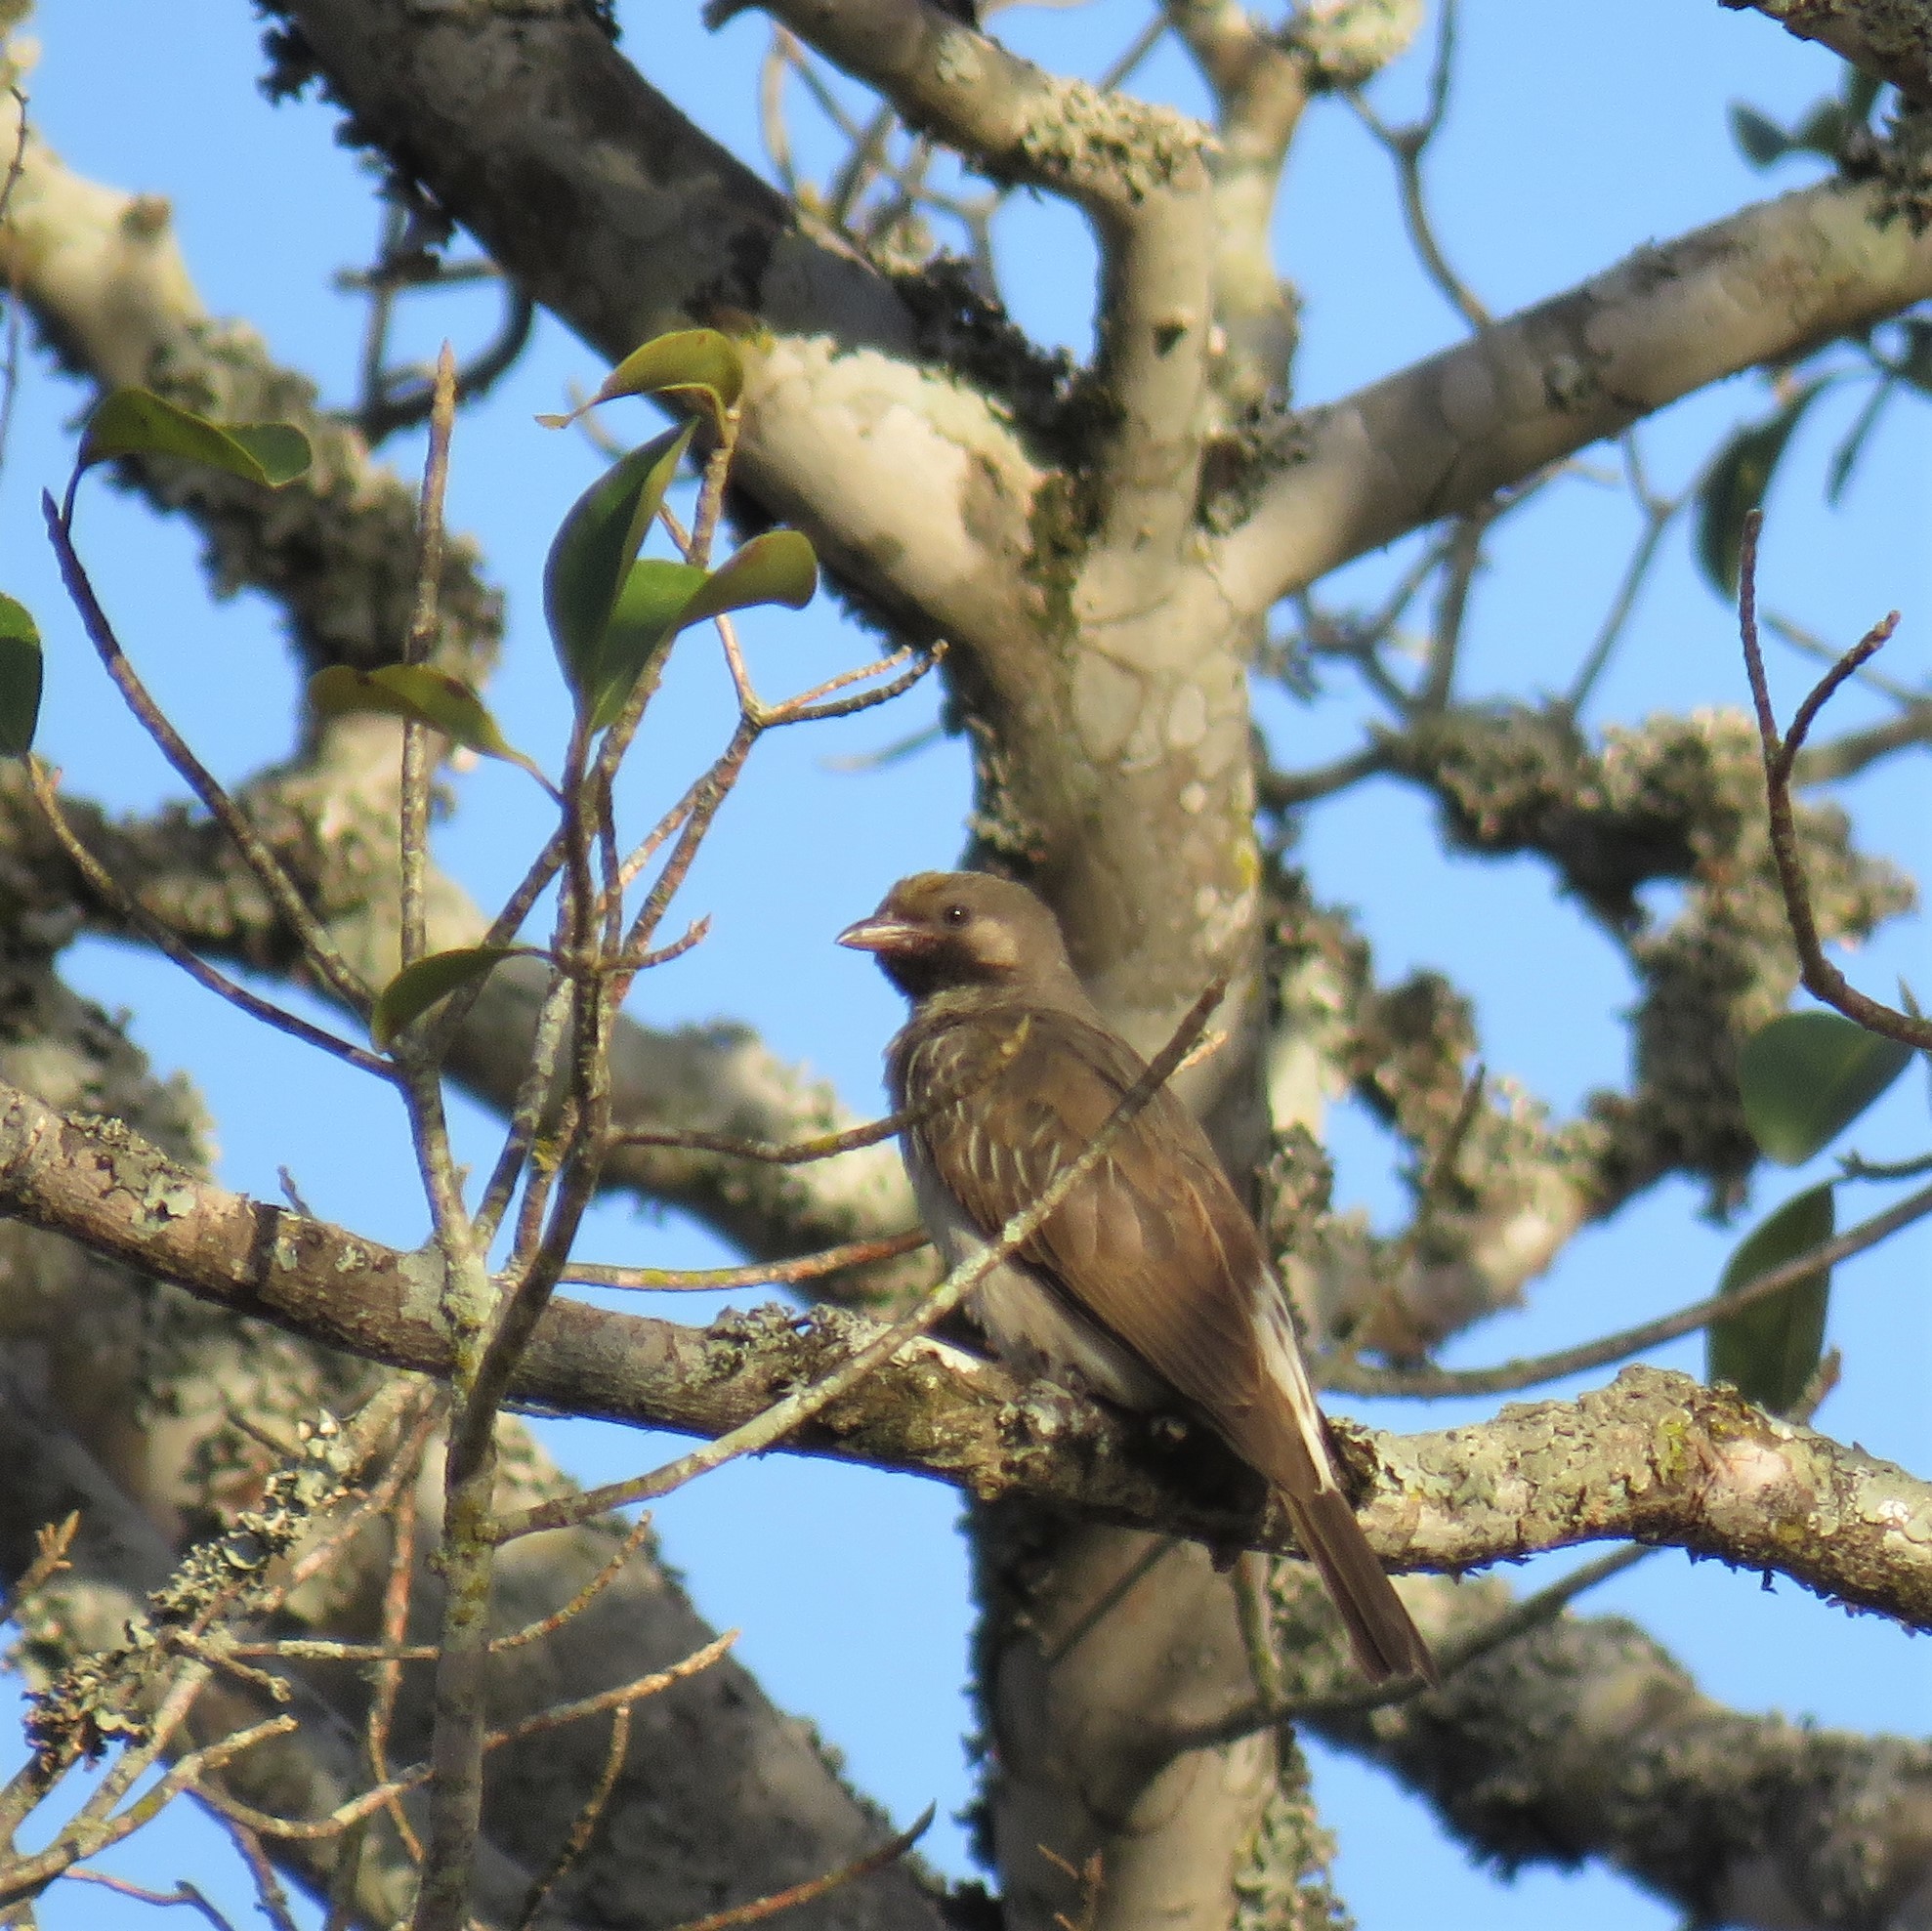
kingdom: Animalia
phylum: Chordata
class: Aves
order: Piciformes
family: Indicatoridae
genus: Indicator
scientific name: Indicator indicator
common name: Greater honeyguide
